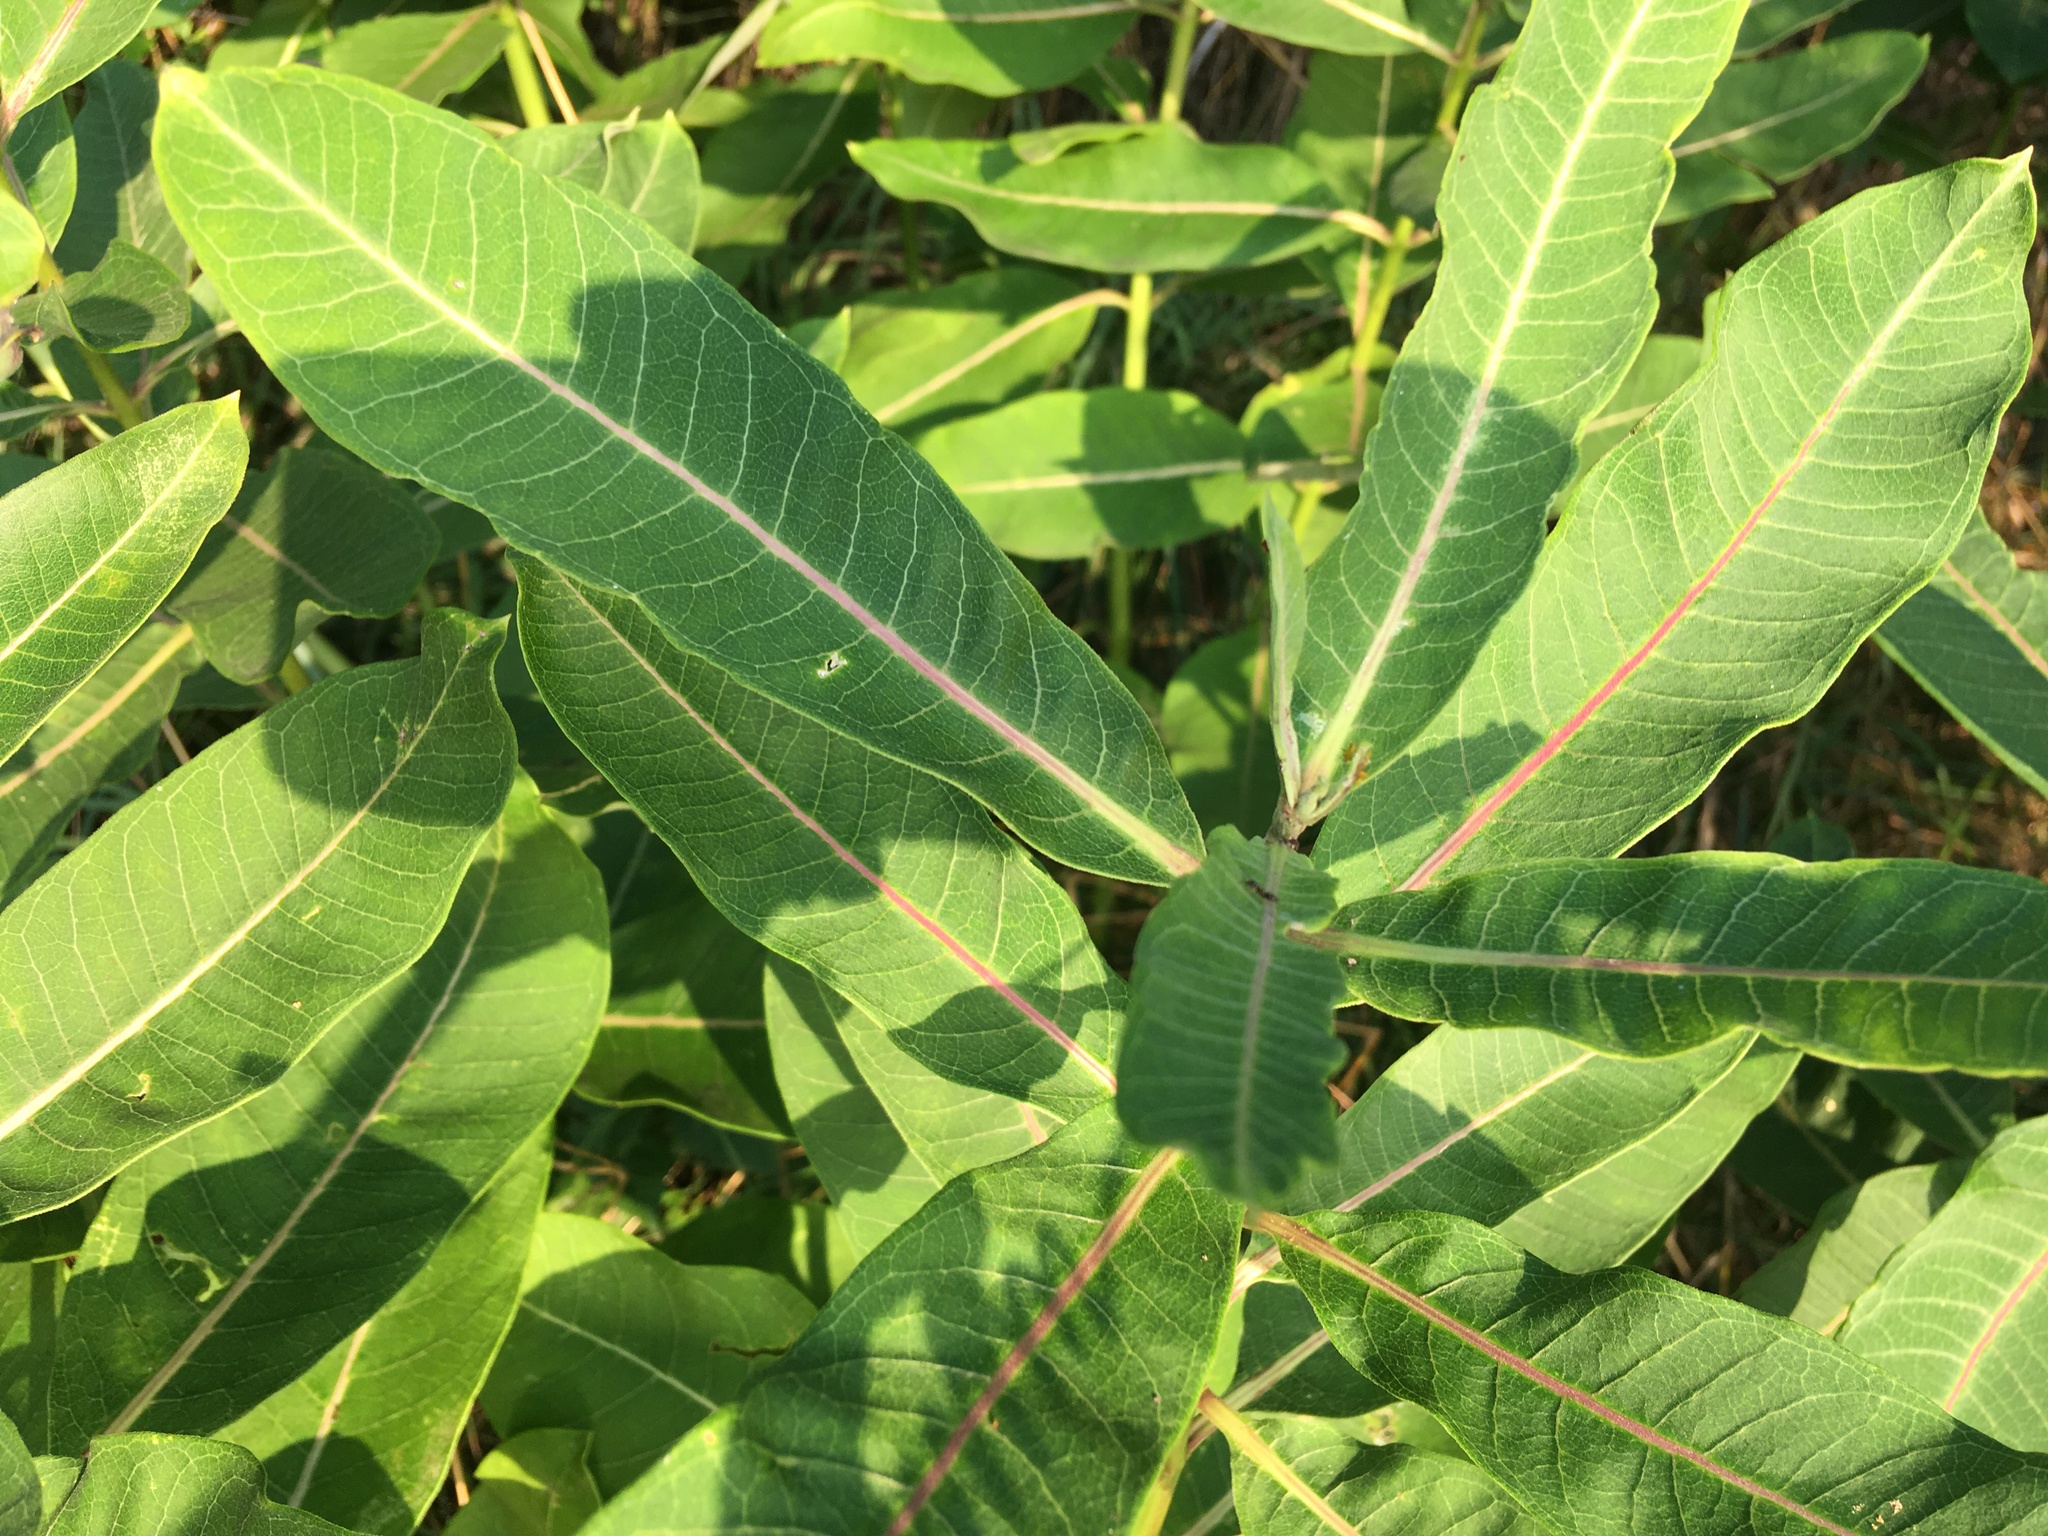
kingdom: Plantae
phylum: Tracheophyta
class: Magnoliopsida
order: Gentianales
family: Apocynaceae
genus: Asclepias
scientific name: Asclepias syriaca
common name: Common milkweed
